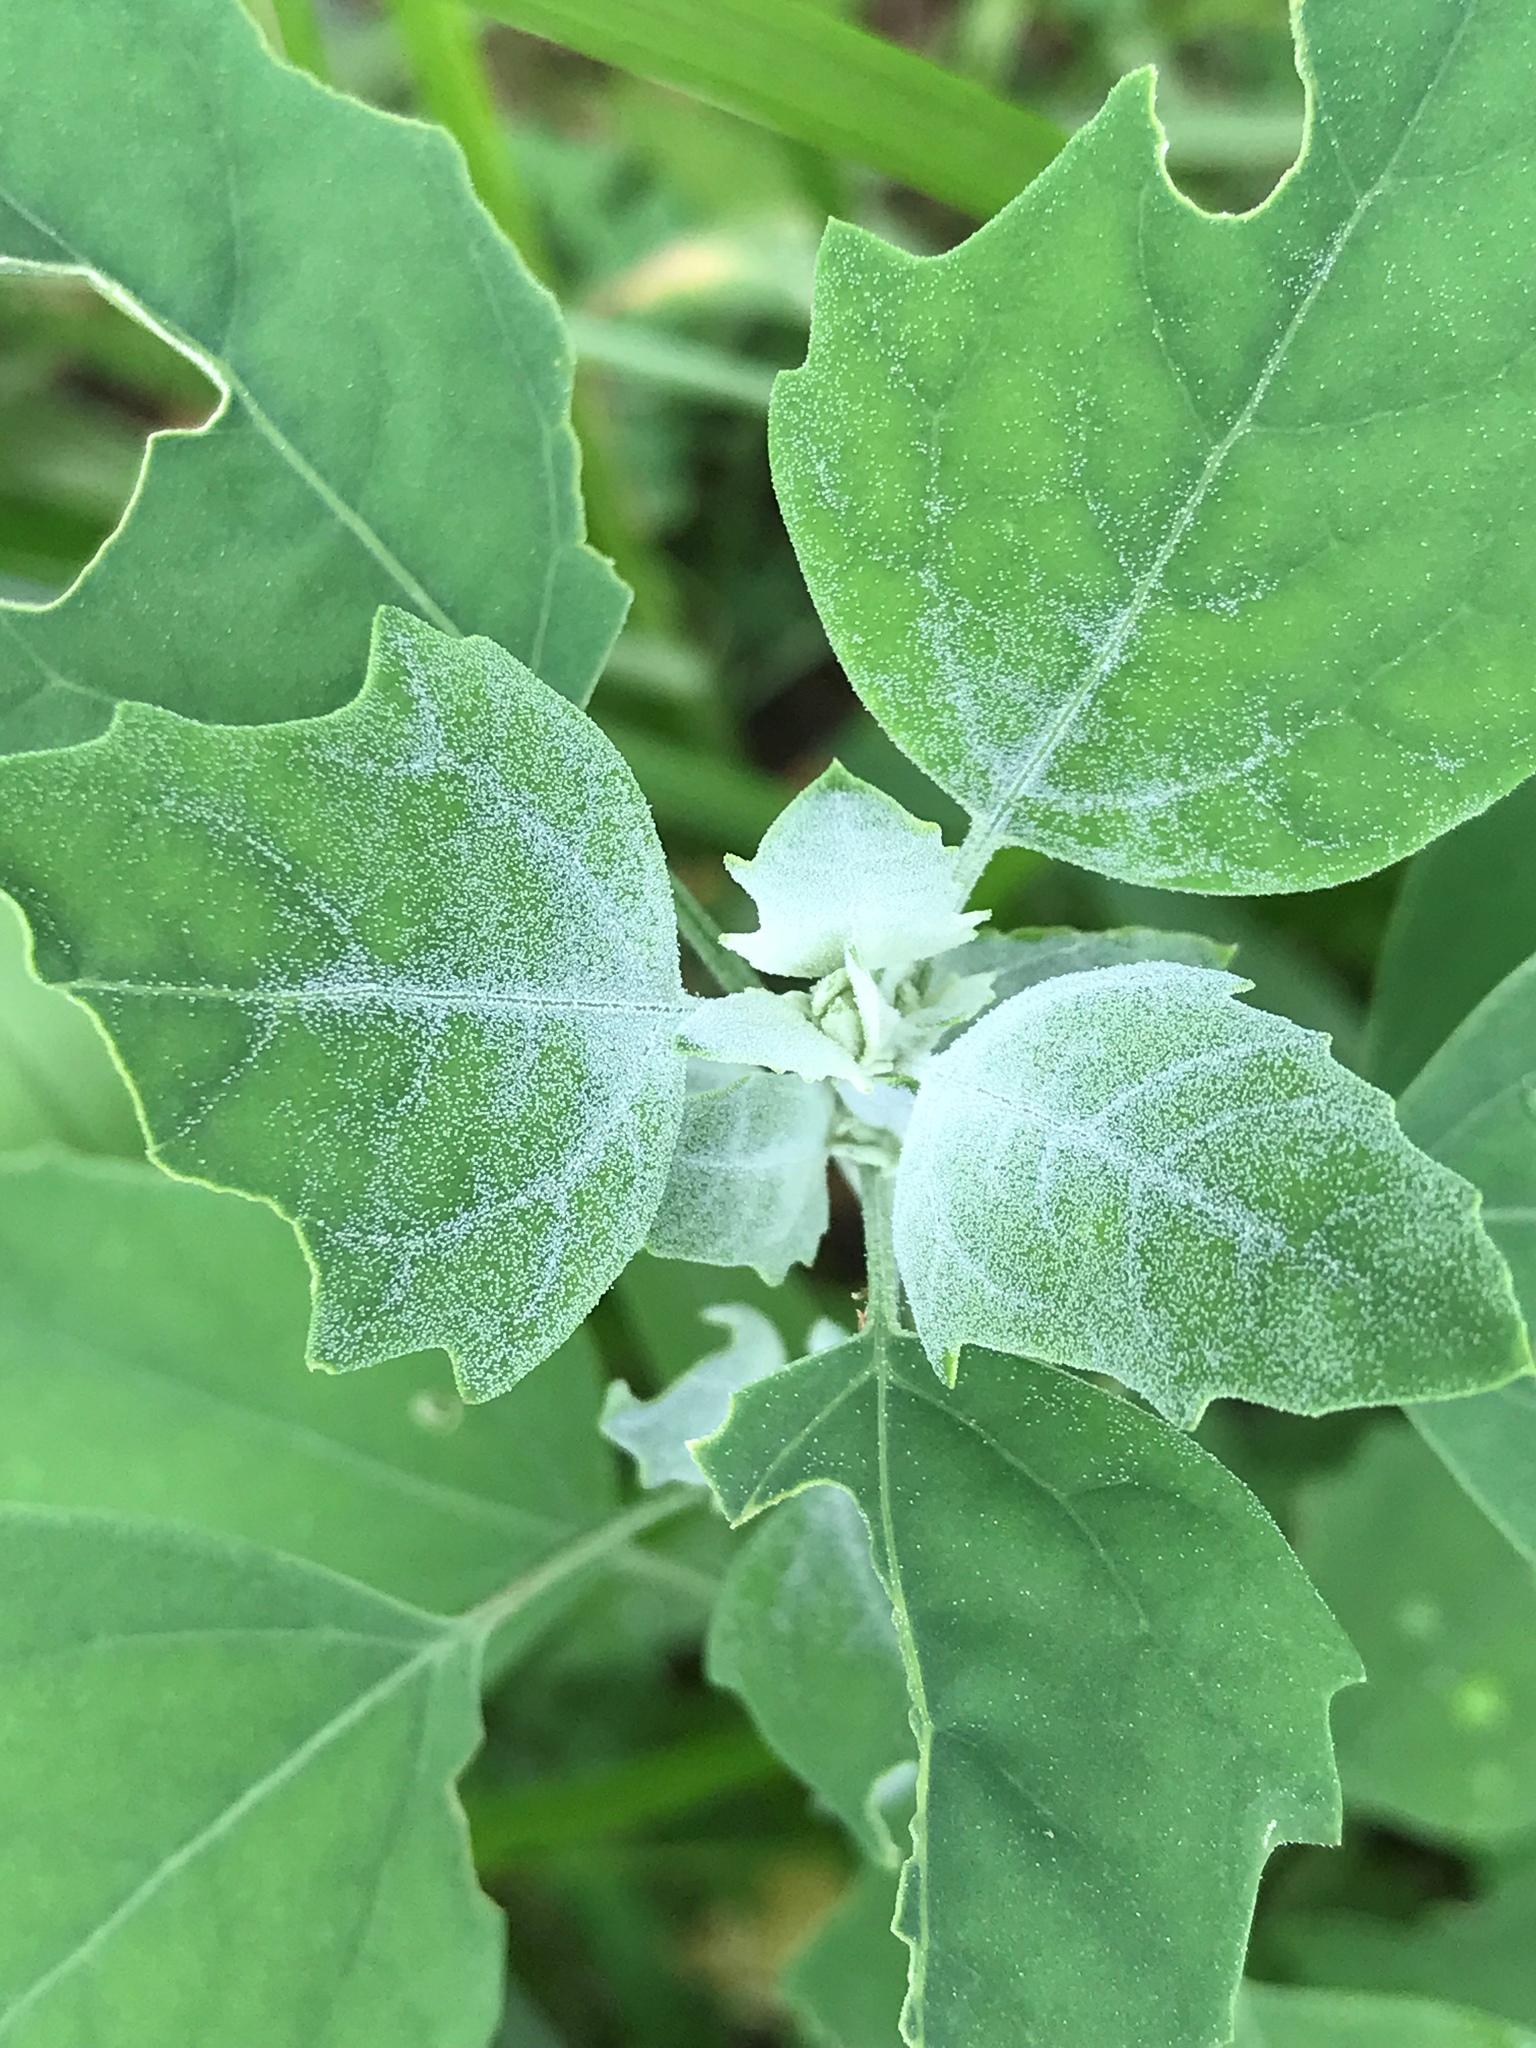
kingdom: Plantae
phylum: Tracheophyta
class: Magnoliopsida
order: Caryophyllales
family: Amaranthaceae
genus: Chenopodium
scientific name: Chenopodium album
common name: Fat-hen
